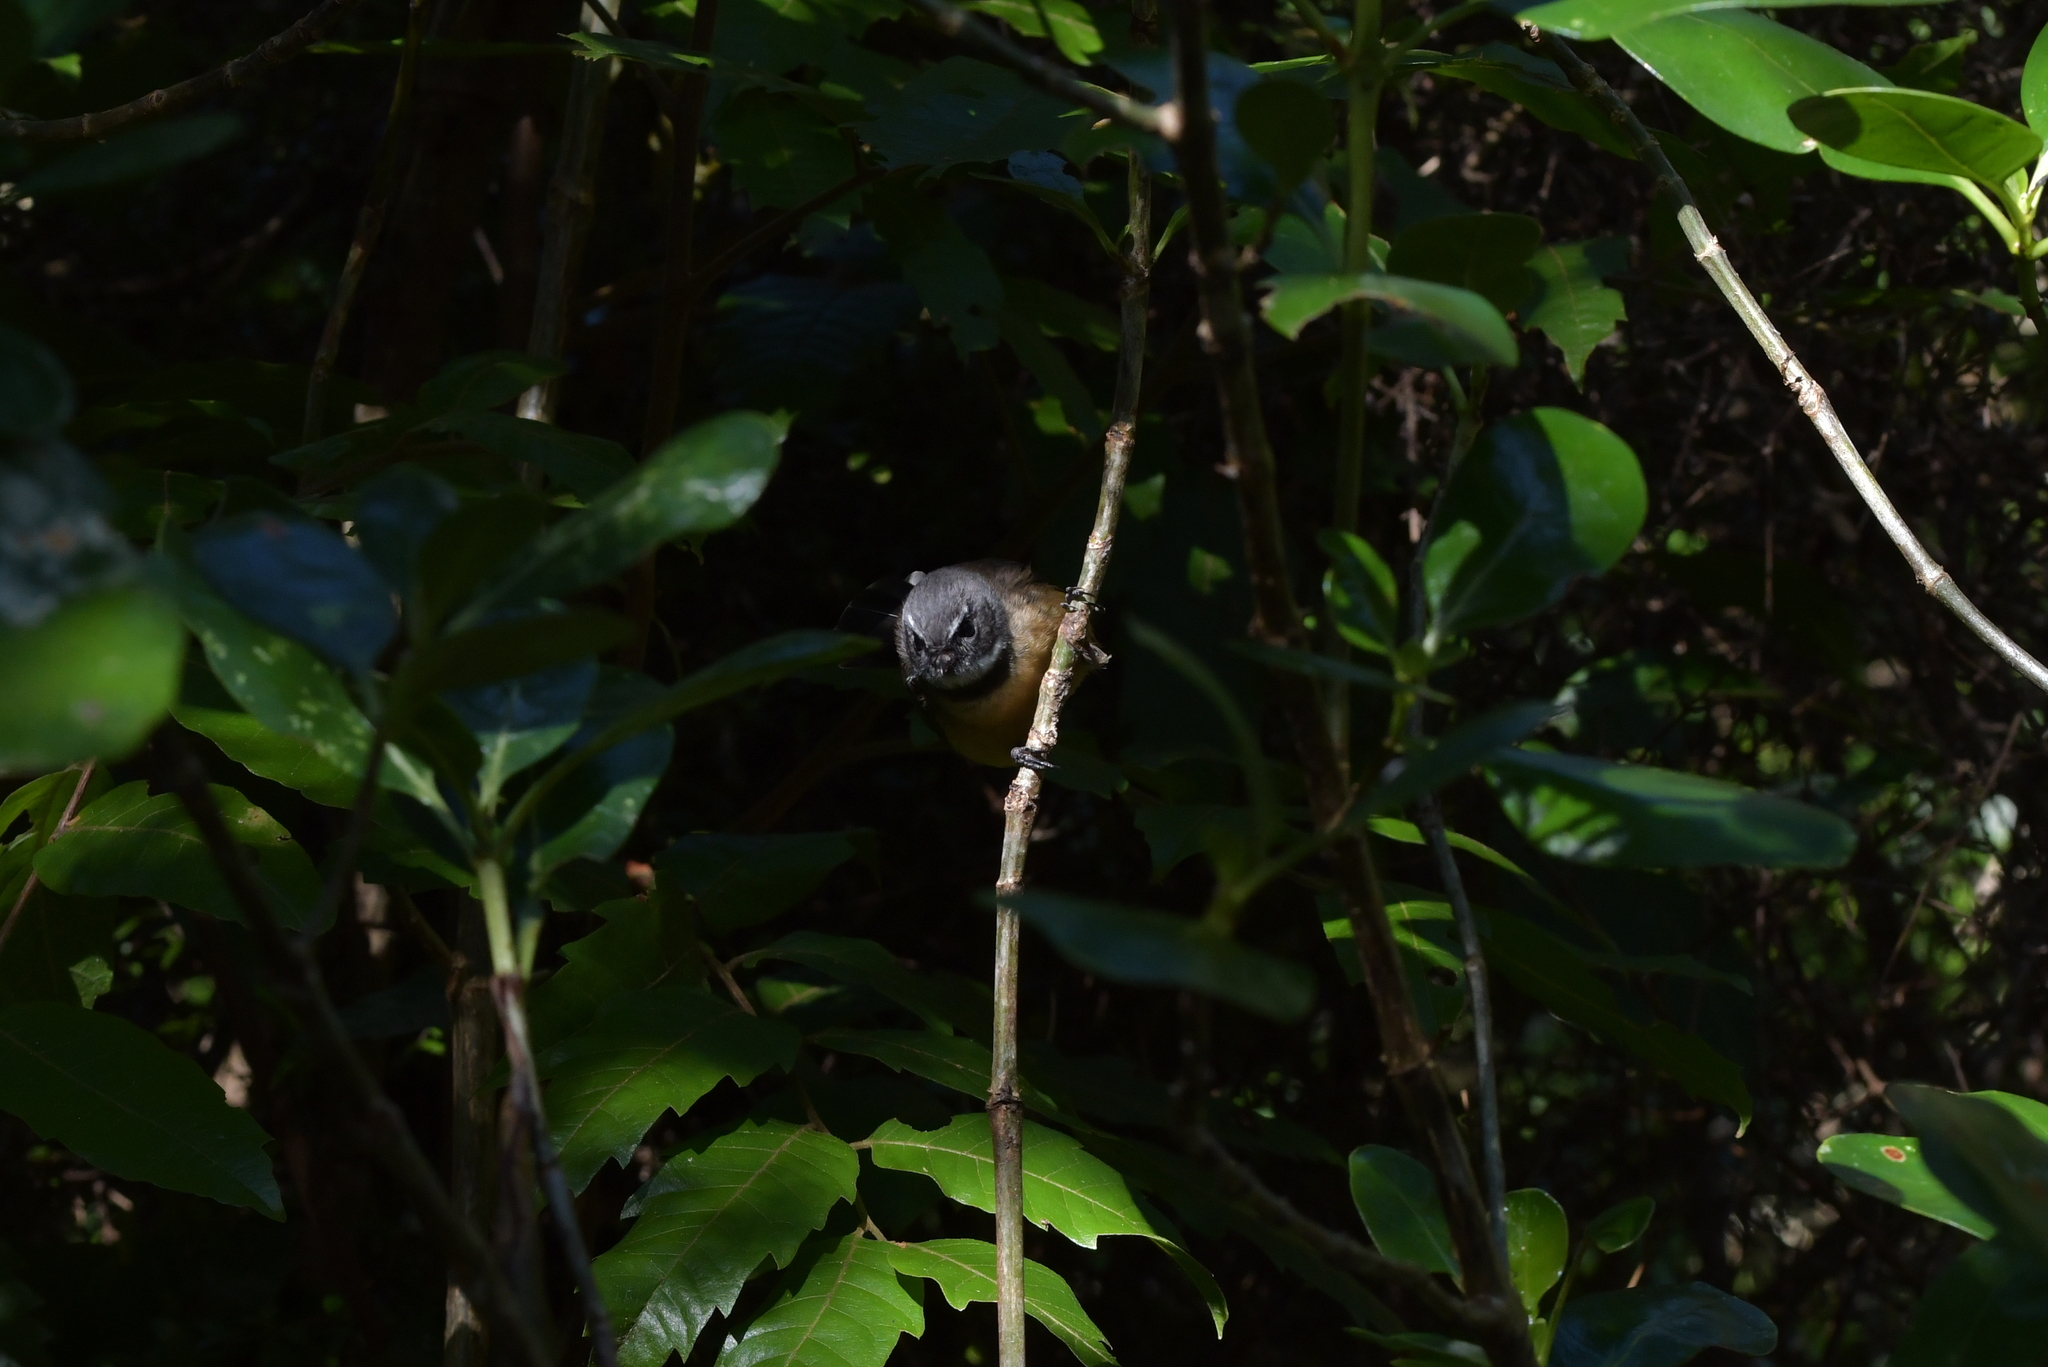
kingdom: Animalia
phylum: Chordata
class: Aves
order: Passeriformes
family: Rhipiduridae
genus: Rhipidura
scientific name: Rhipidura fuliginosa
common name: New zealand fantail
